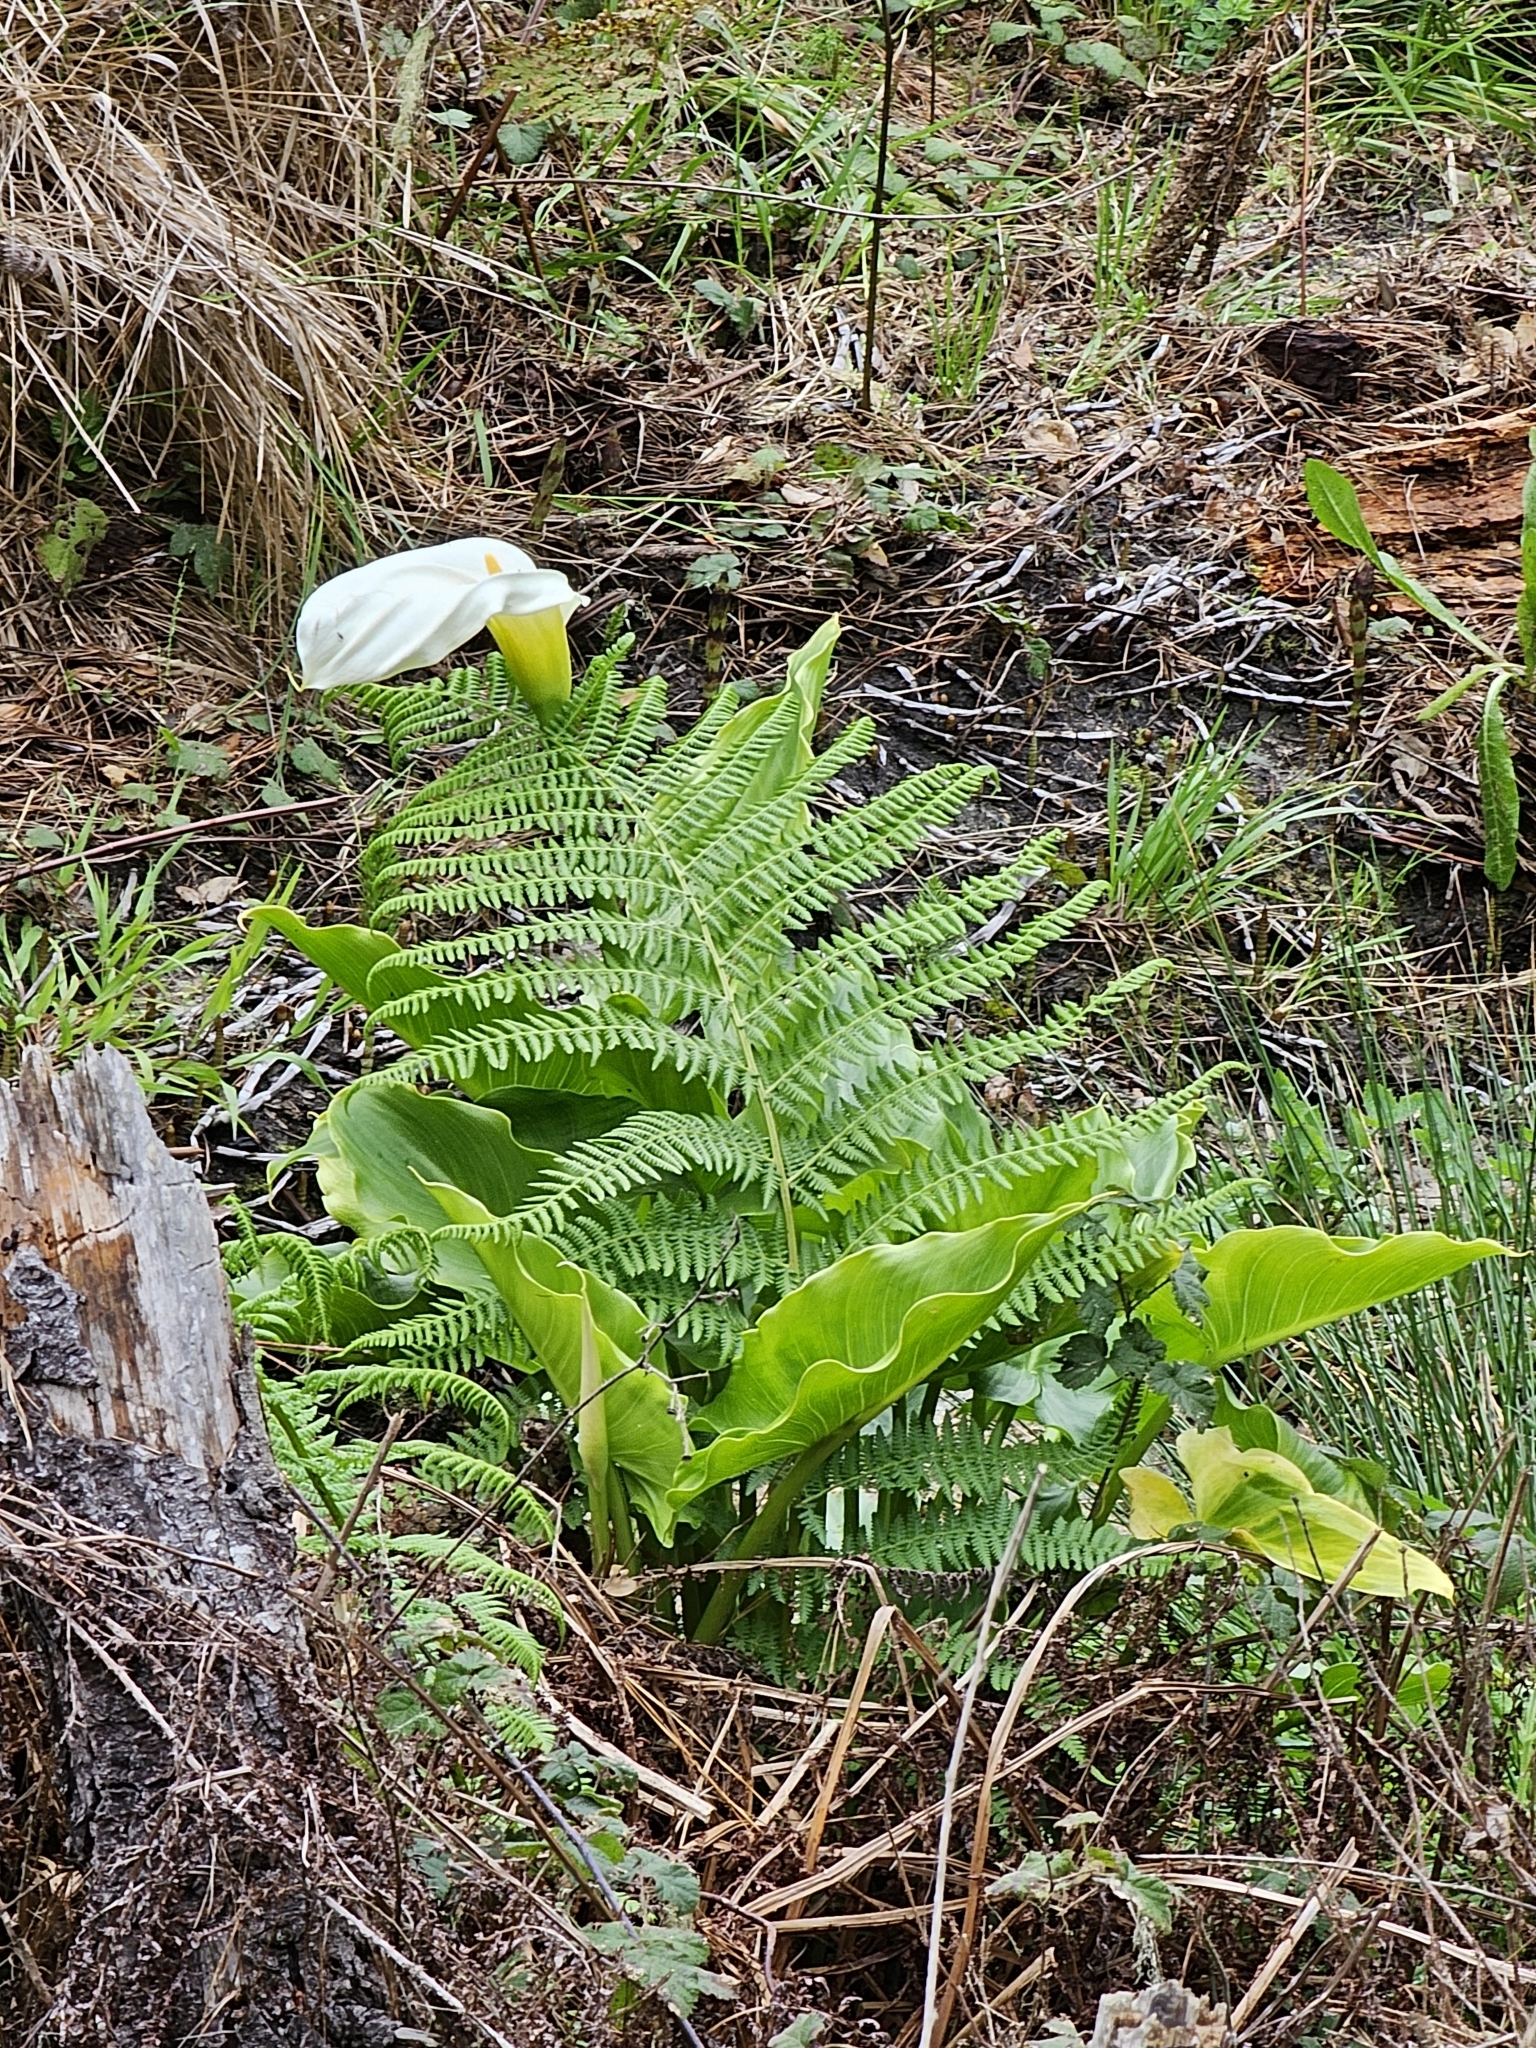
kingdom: Plantae
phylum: Tracheophyta
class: Liliopsida
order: Alismatales
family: Araceae
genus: Zantedeschia
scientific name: Zantedeschia aethiopica
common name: Altar-lily
